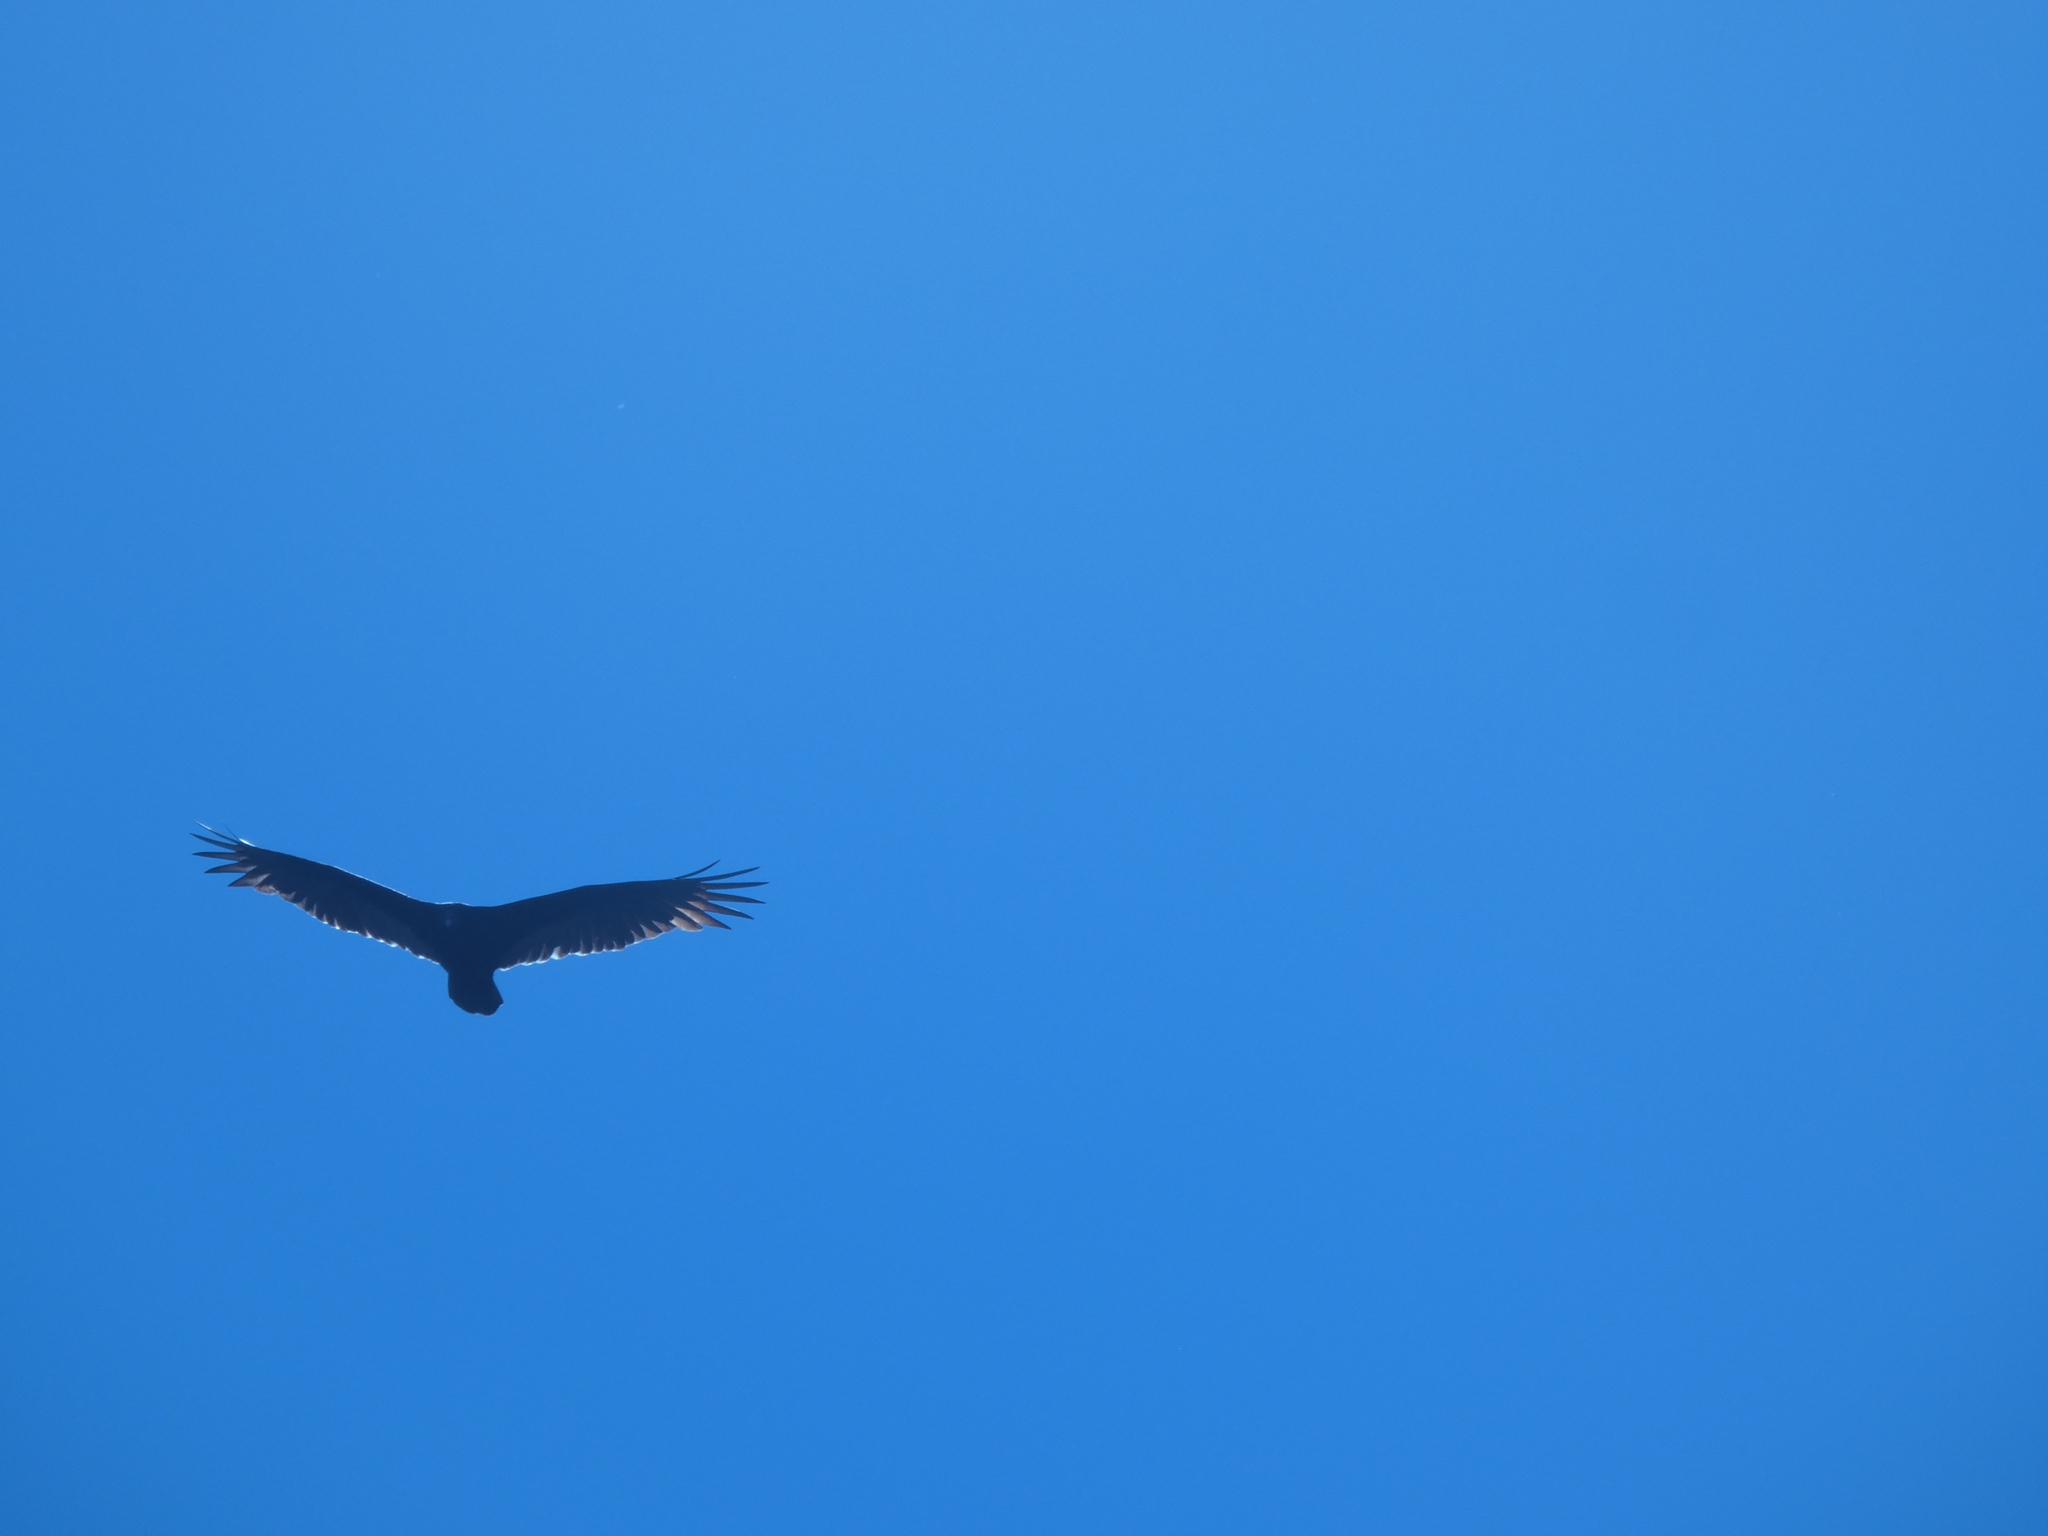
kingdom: Animalia
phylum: Chordata
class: Aves
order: Accipitriformes
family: Cathartidae
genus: Cathartes
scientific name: Cathartes aura
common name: Turkey vulture
